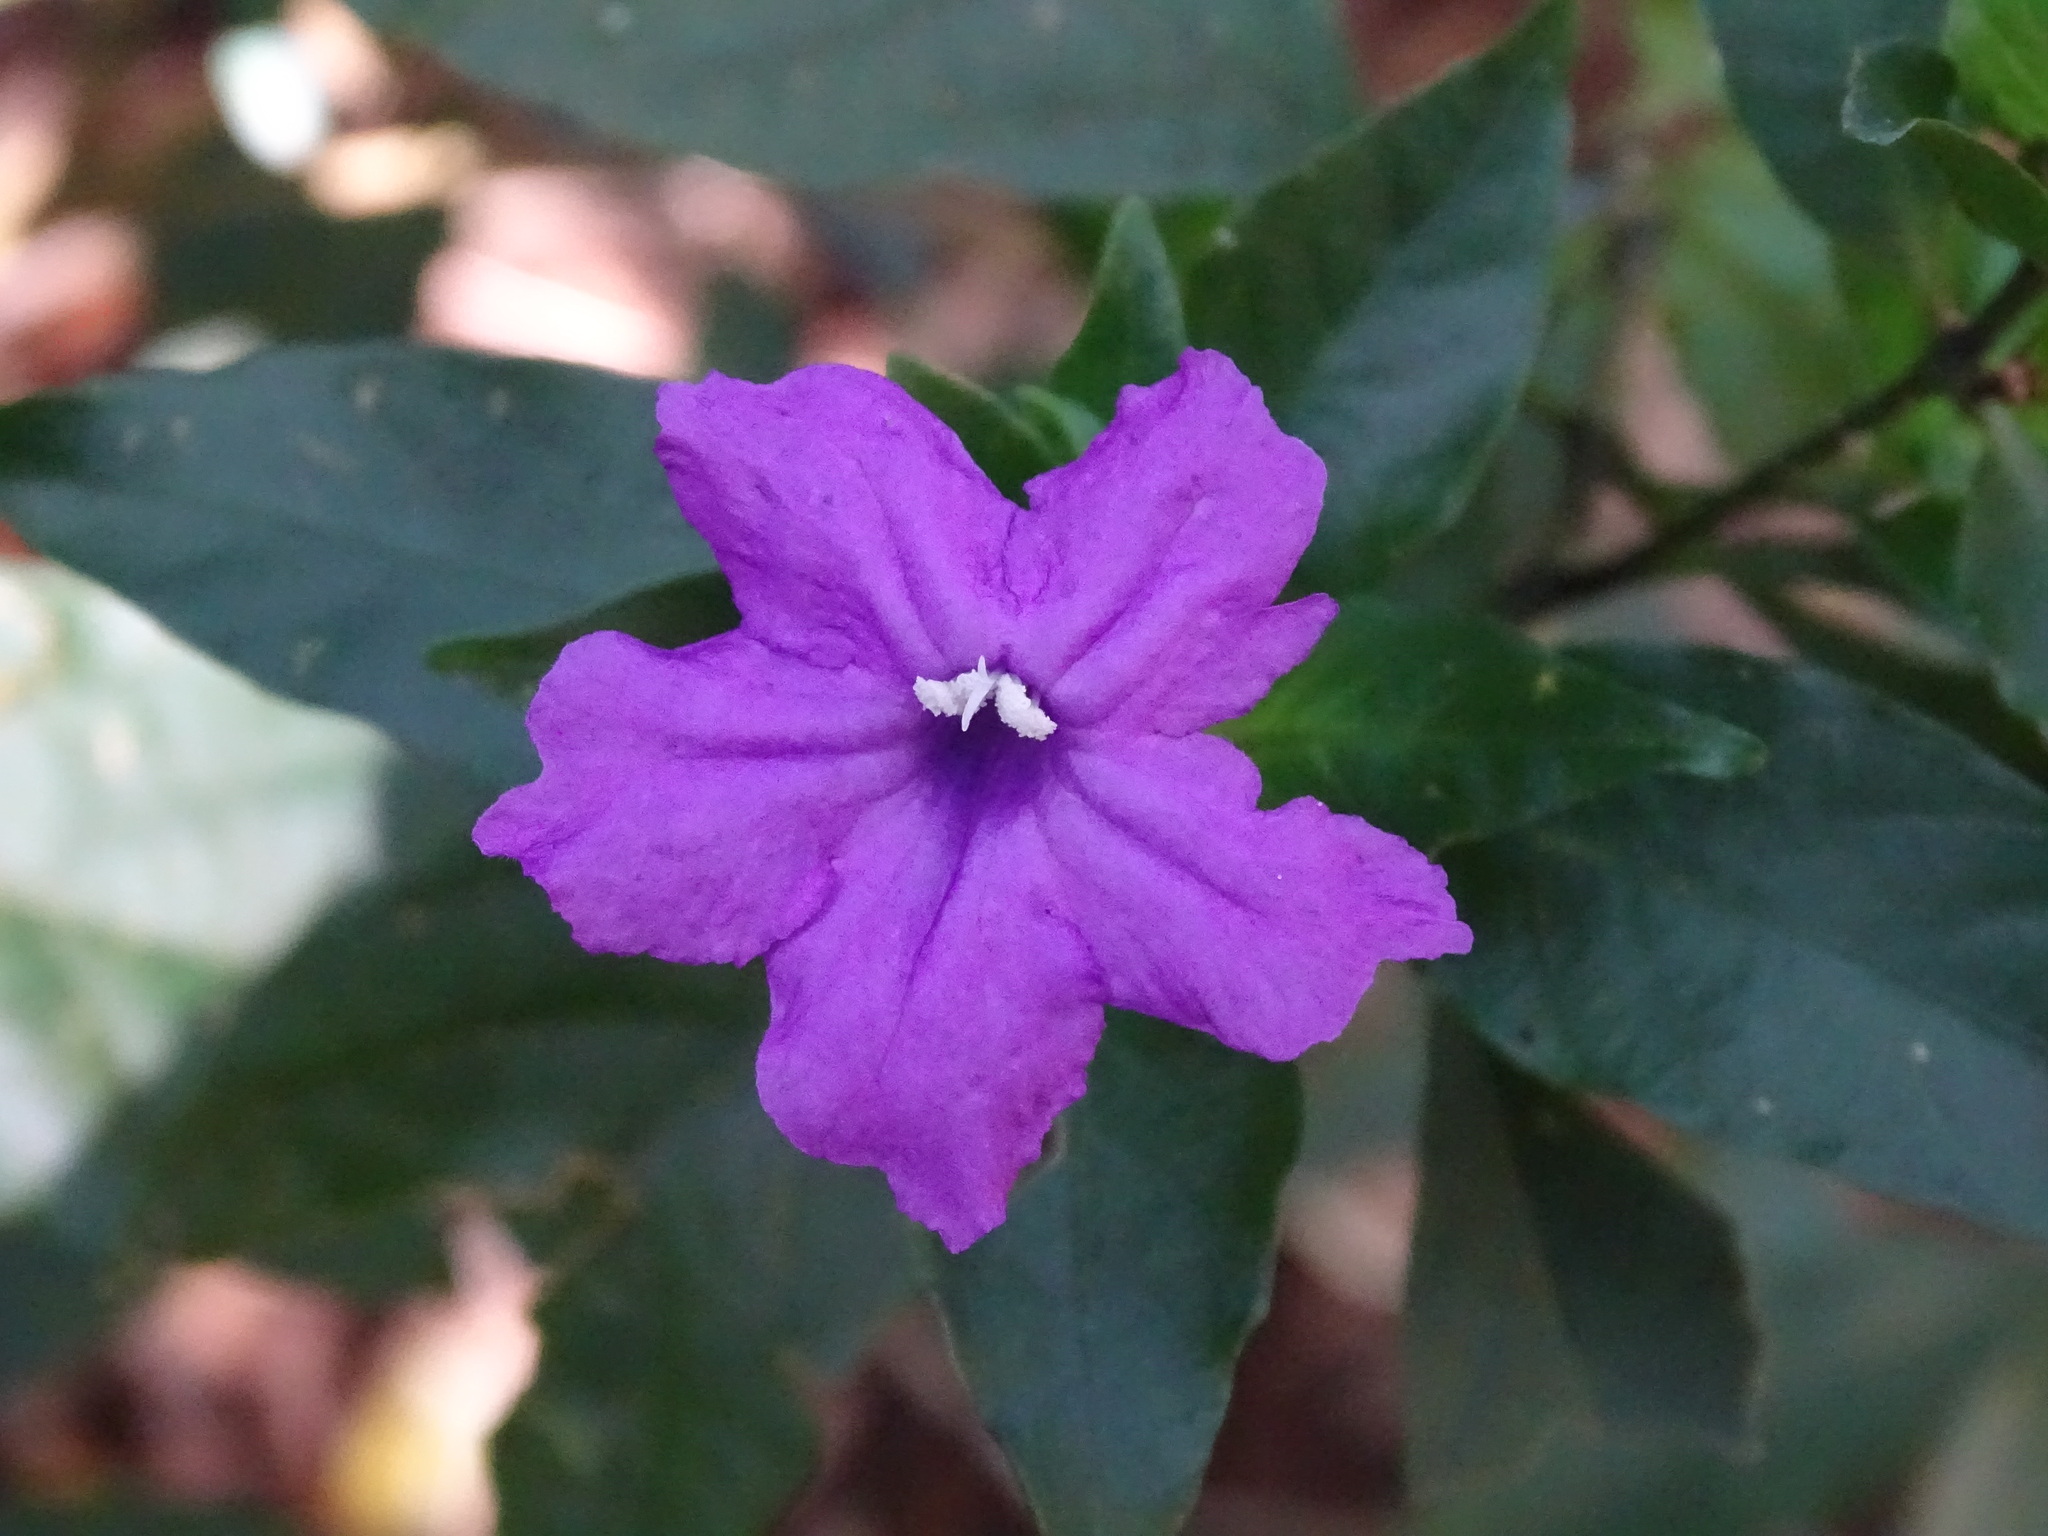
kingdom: Plantae
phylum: Tracheophyta
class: Magnoliopsida
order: Lamiales
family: Acanthaceae
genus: Ruellia
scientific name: Ruellia matagalpae
